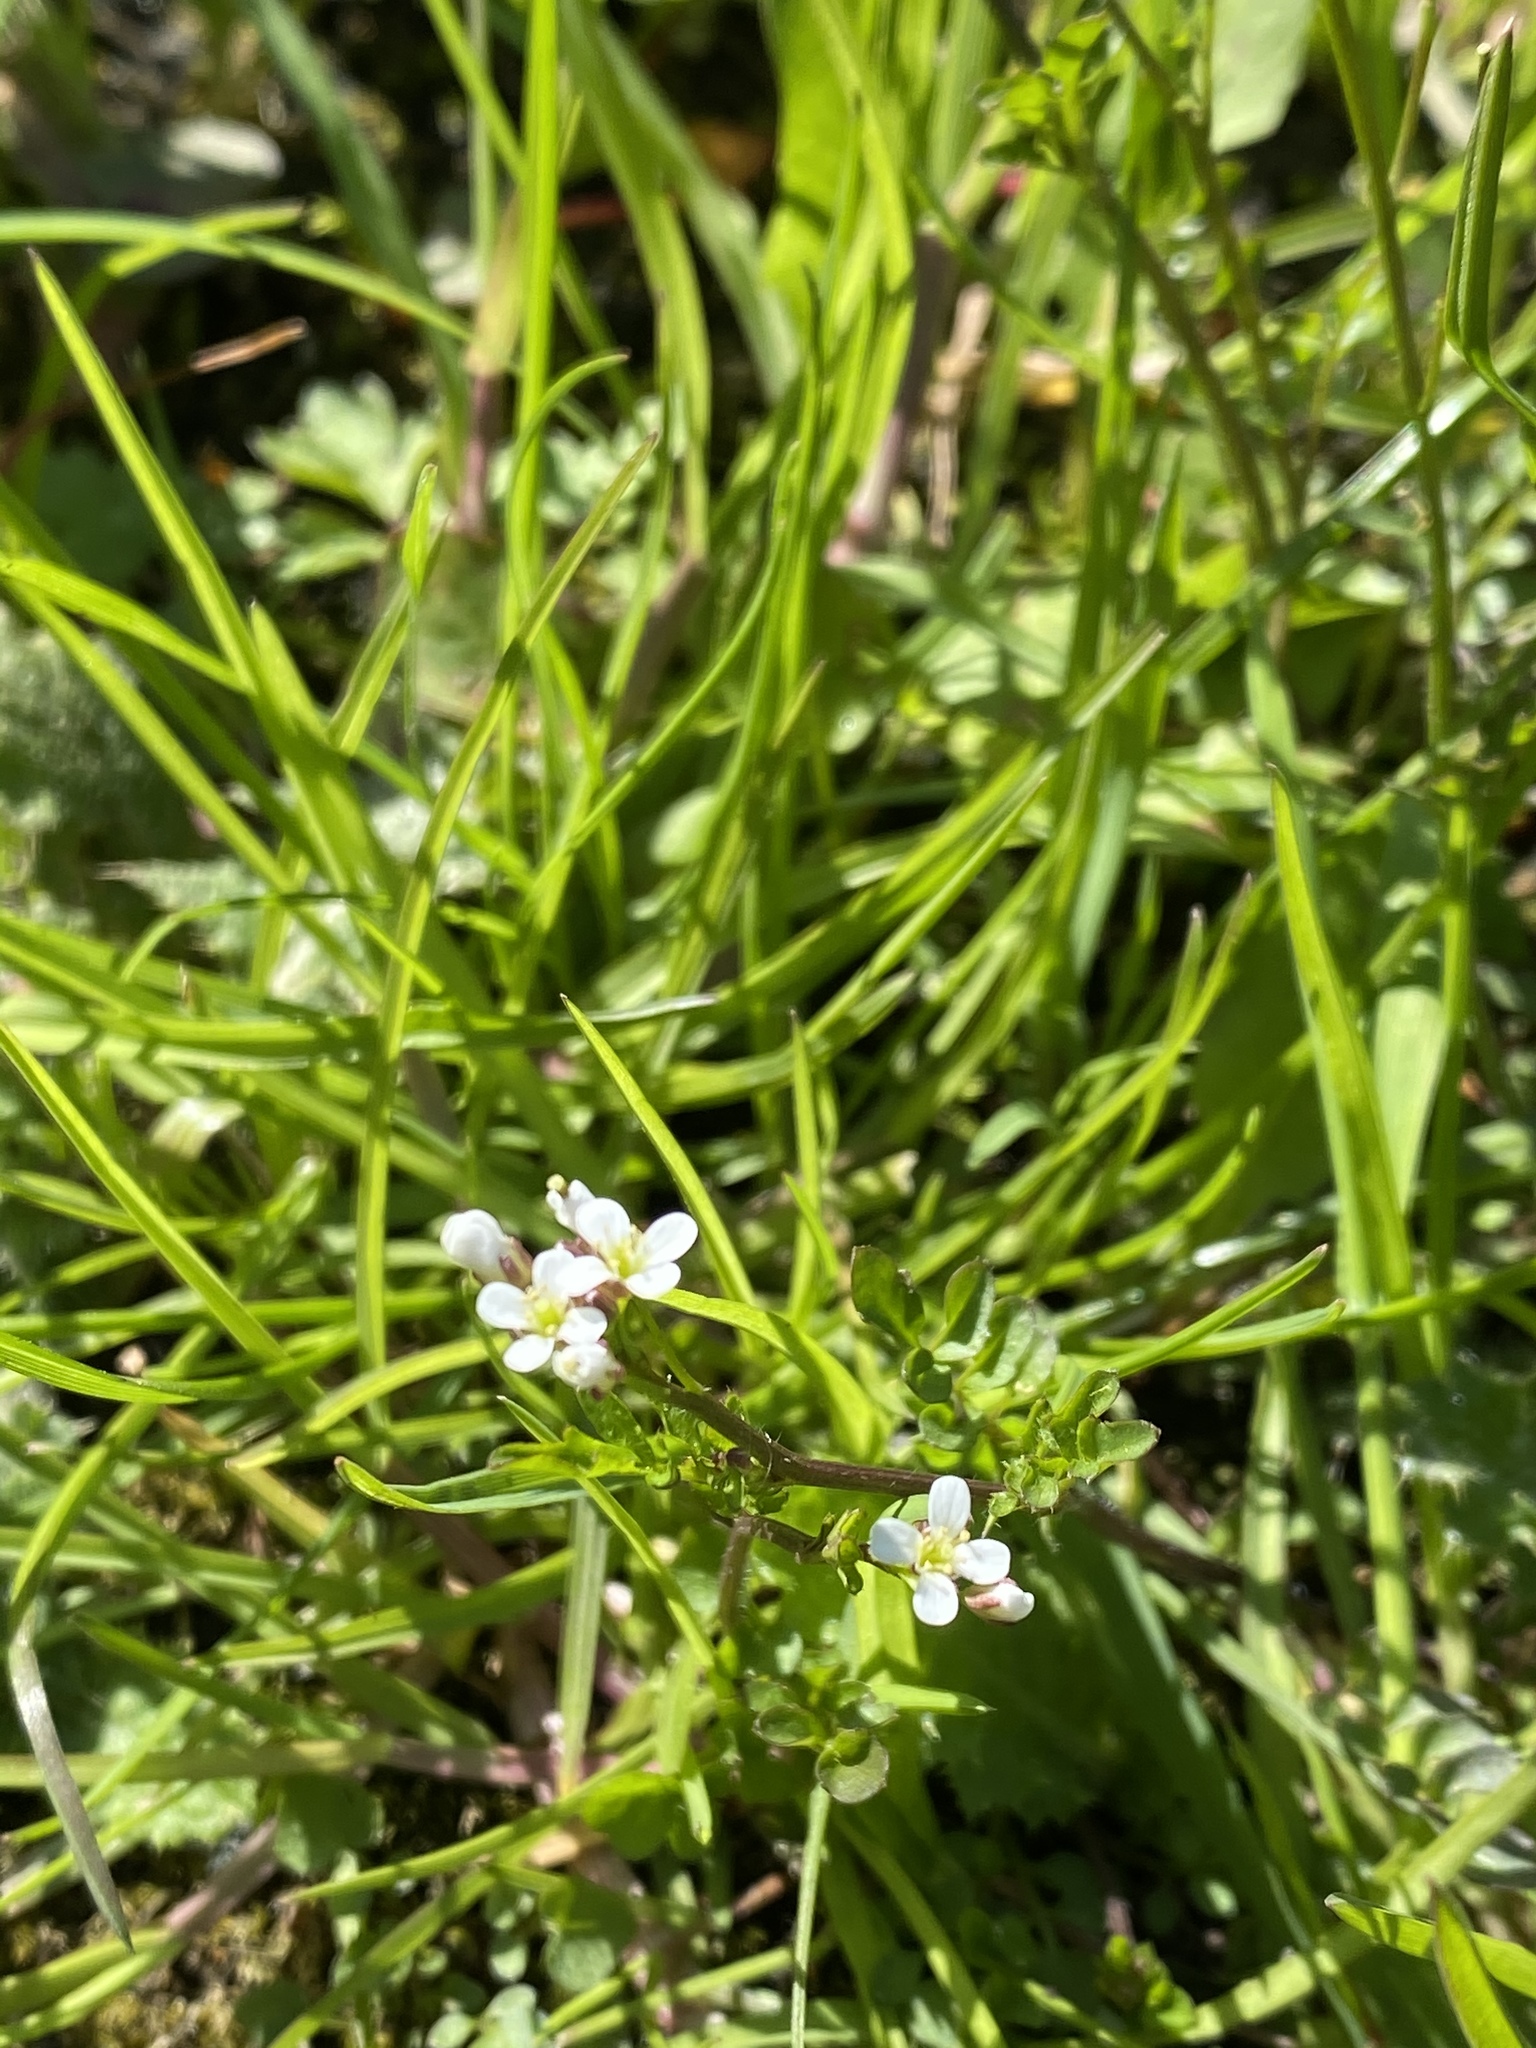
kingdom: Plantae
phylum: Tracheophyta
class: Magnoliopsida
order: Brassicales
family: Brassicaceae
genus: Cardamine
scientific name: Cardamine flexuosa
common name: Woodland bittercress
